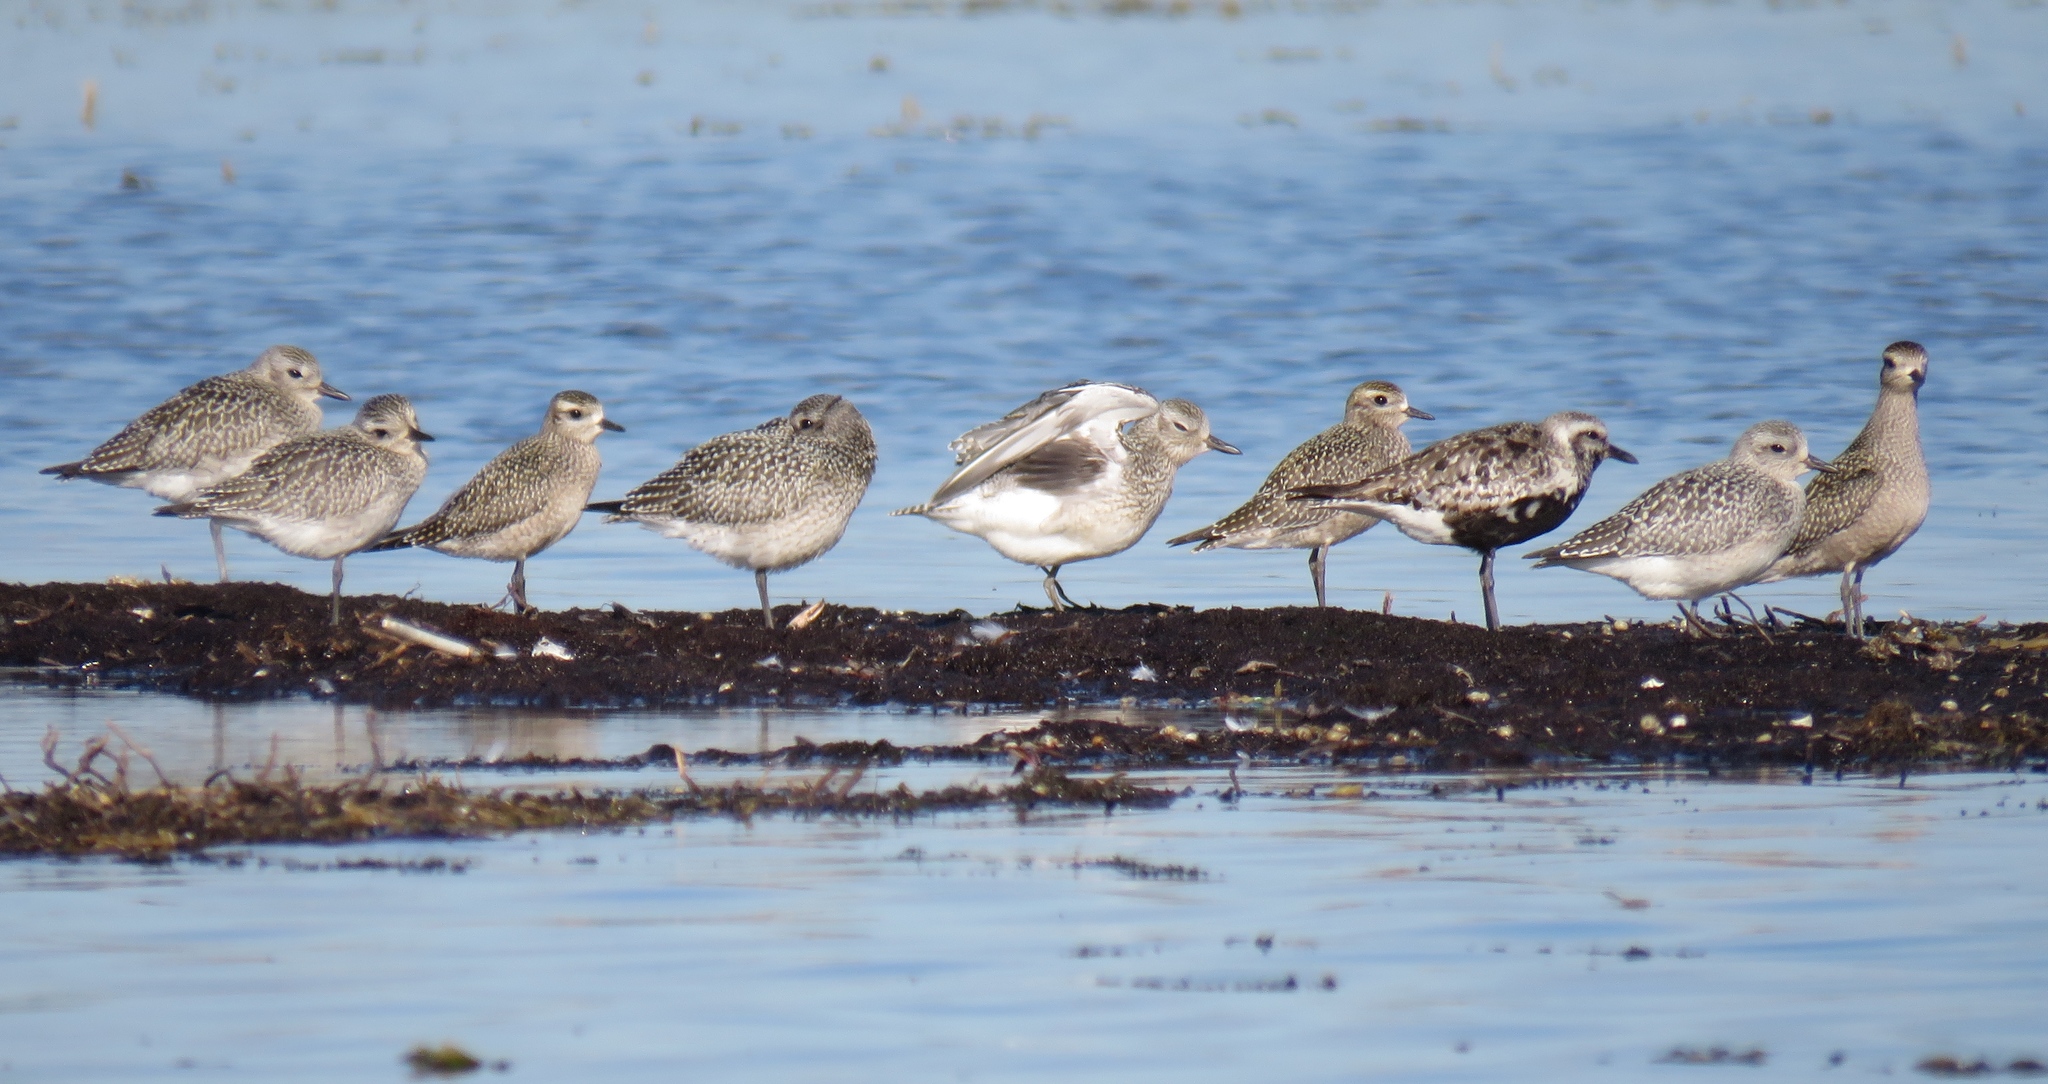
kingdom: Animalia
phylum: Chordata
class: Aves
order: Charadriiformes
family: Charadriidae
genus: Pluvialis
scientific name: Pluvialis dominica
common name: American golden plover
